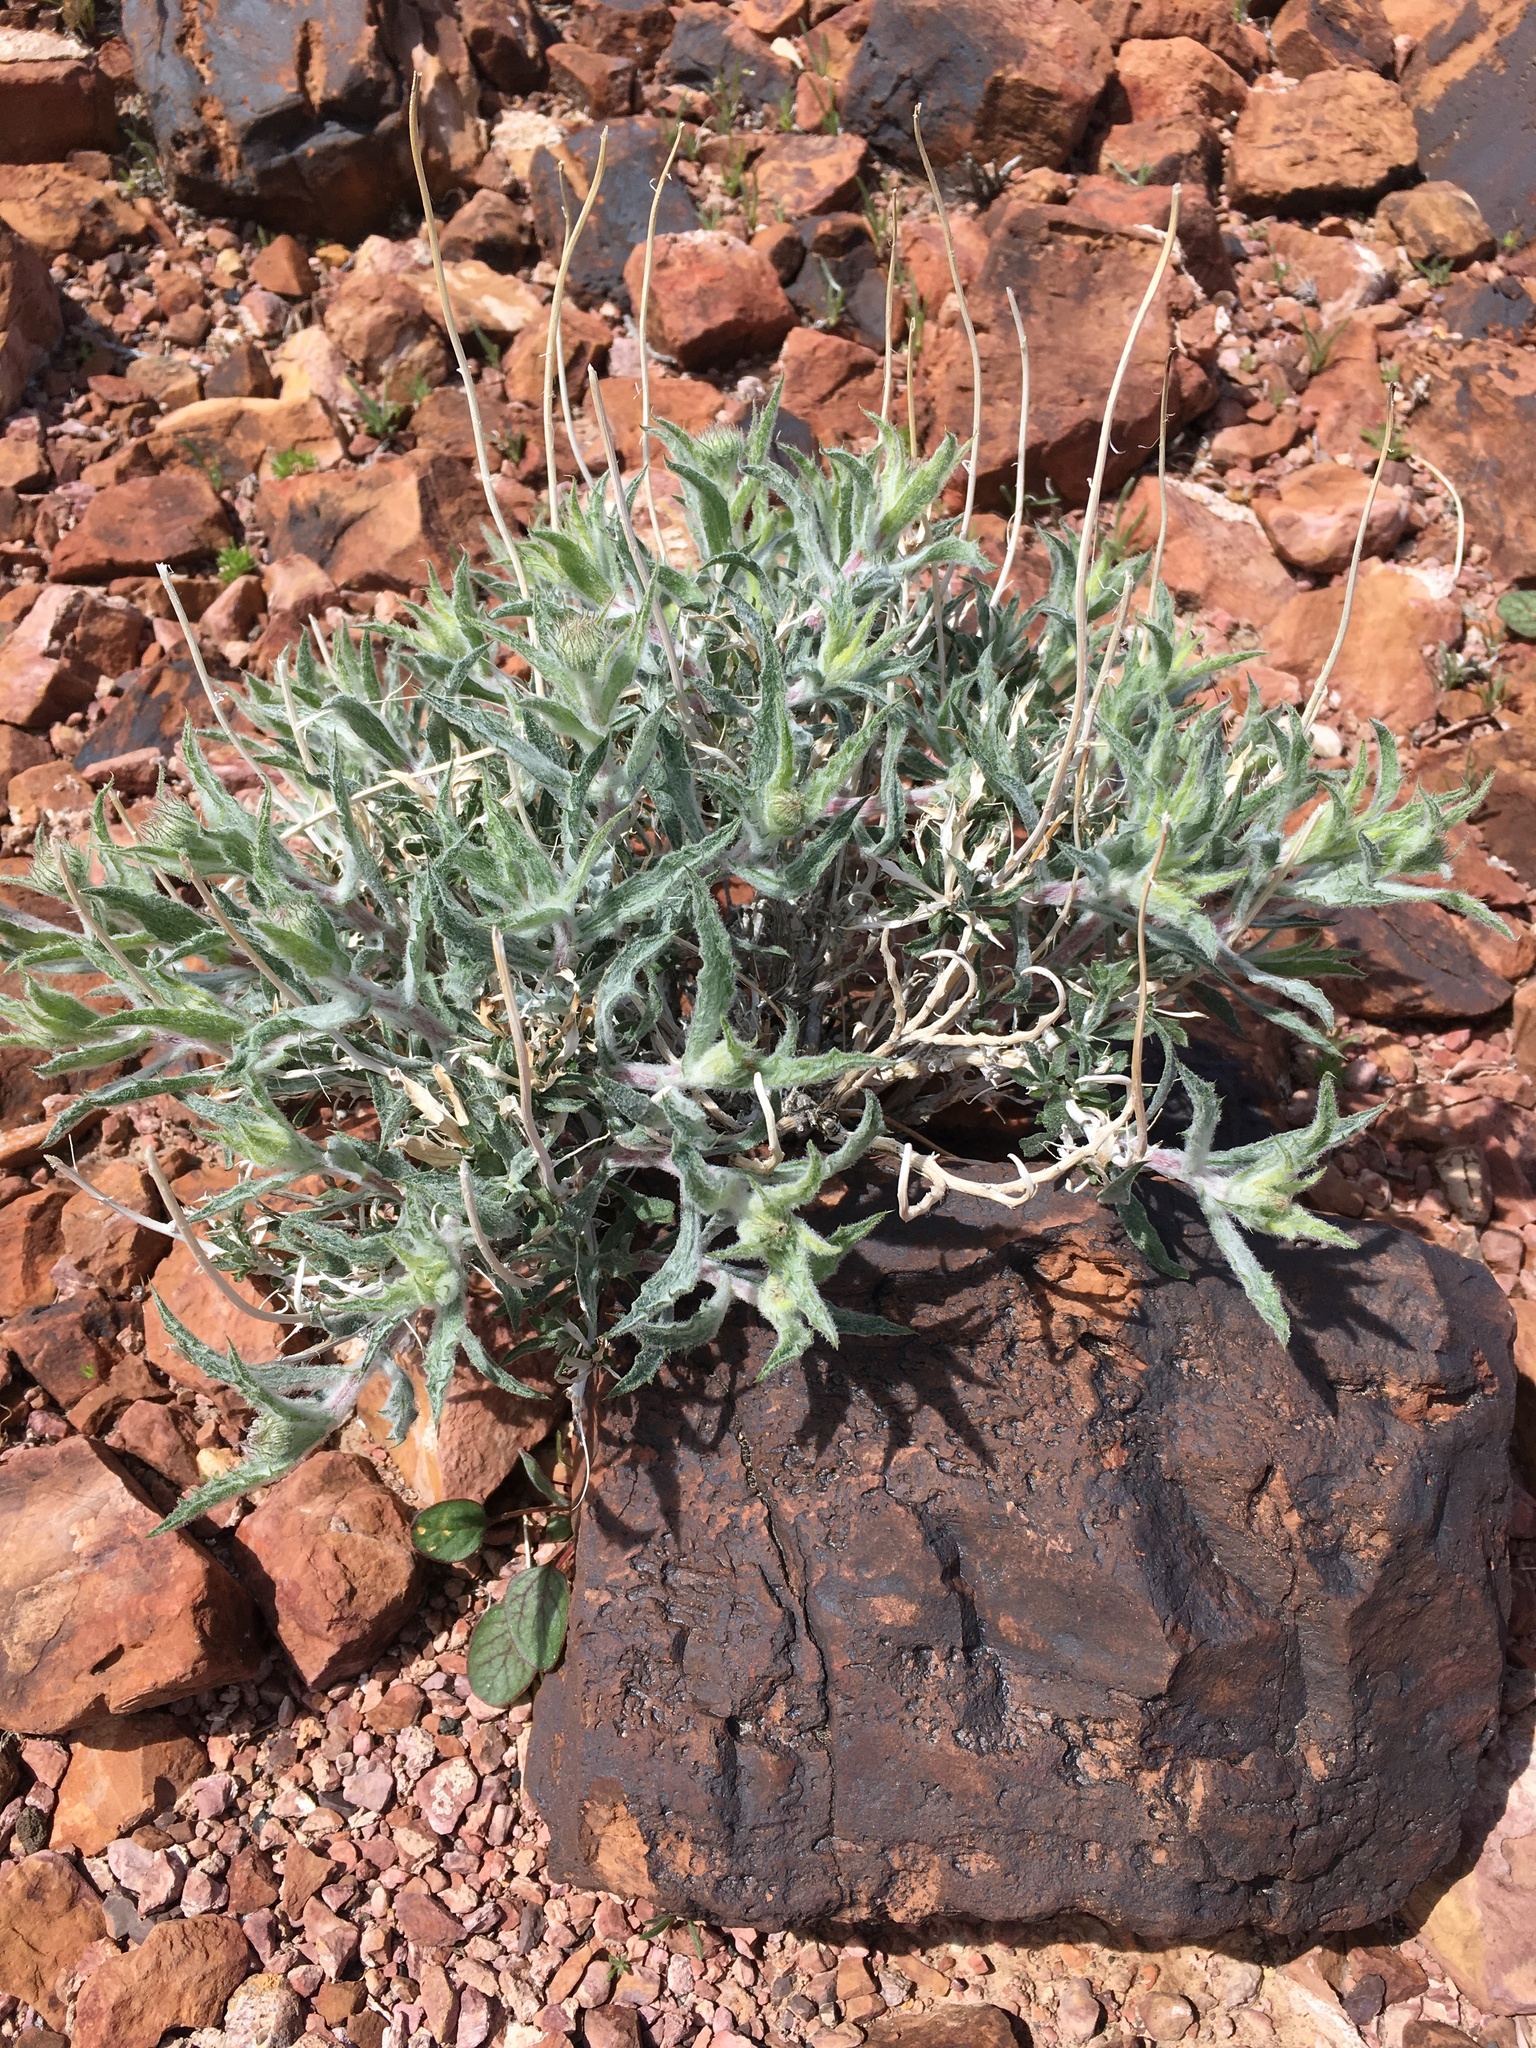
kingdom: Plantae
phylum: Tracheophyta
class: Magnoliopsida
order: Asterales
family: Asteraceae
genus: Xylorhiza
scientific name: Xylorhiza tortifolia
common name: Hurt-leaf woody-aster
